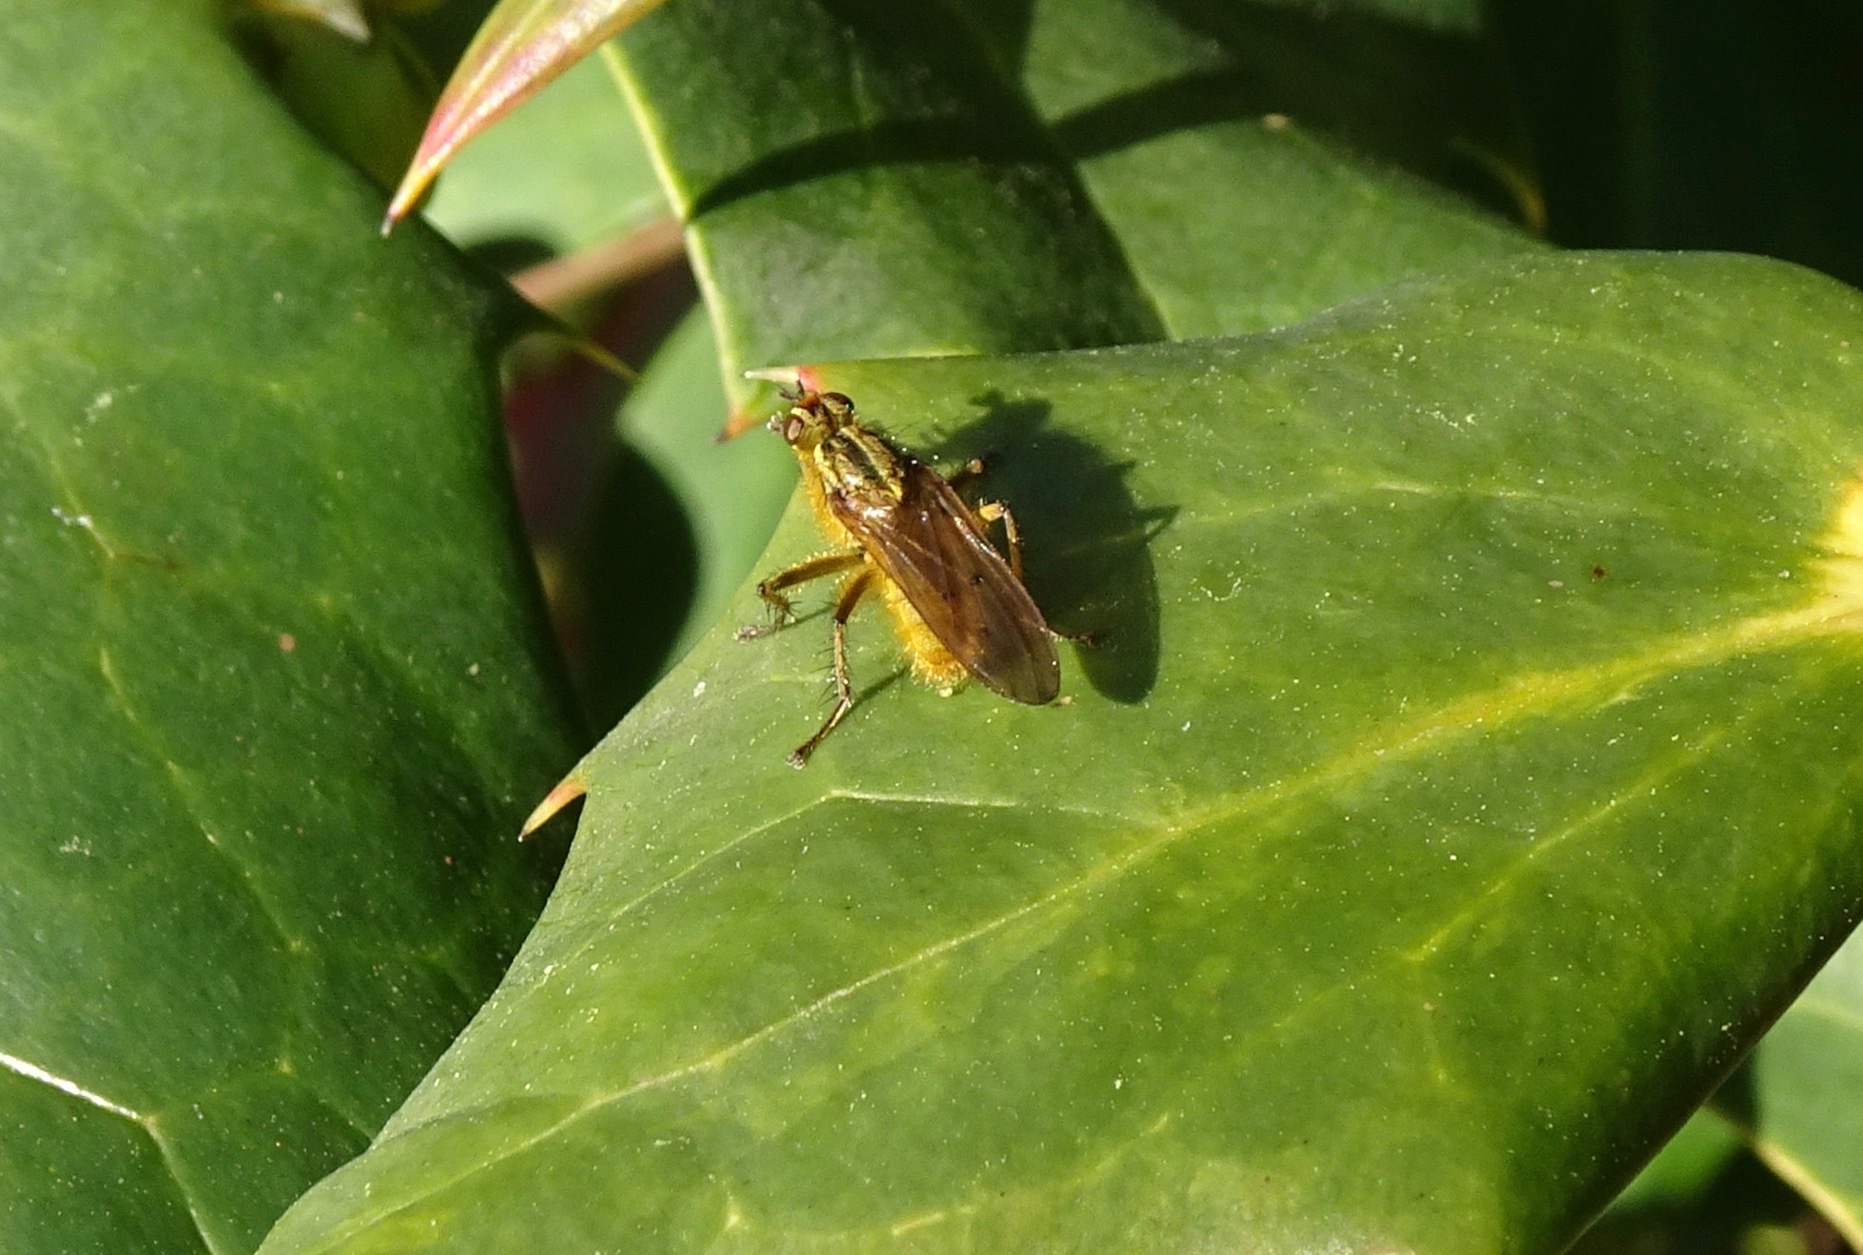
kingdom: Animalia
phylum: Arthropoda
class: Insecta
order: Diptera
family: Scathophagidae
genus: Scathophaga
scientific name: Scathophaga stercoraria
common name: Yellow dung fly
